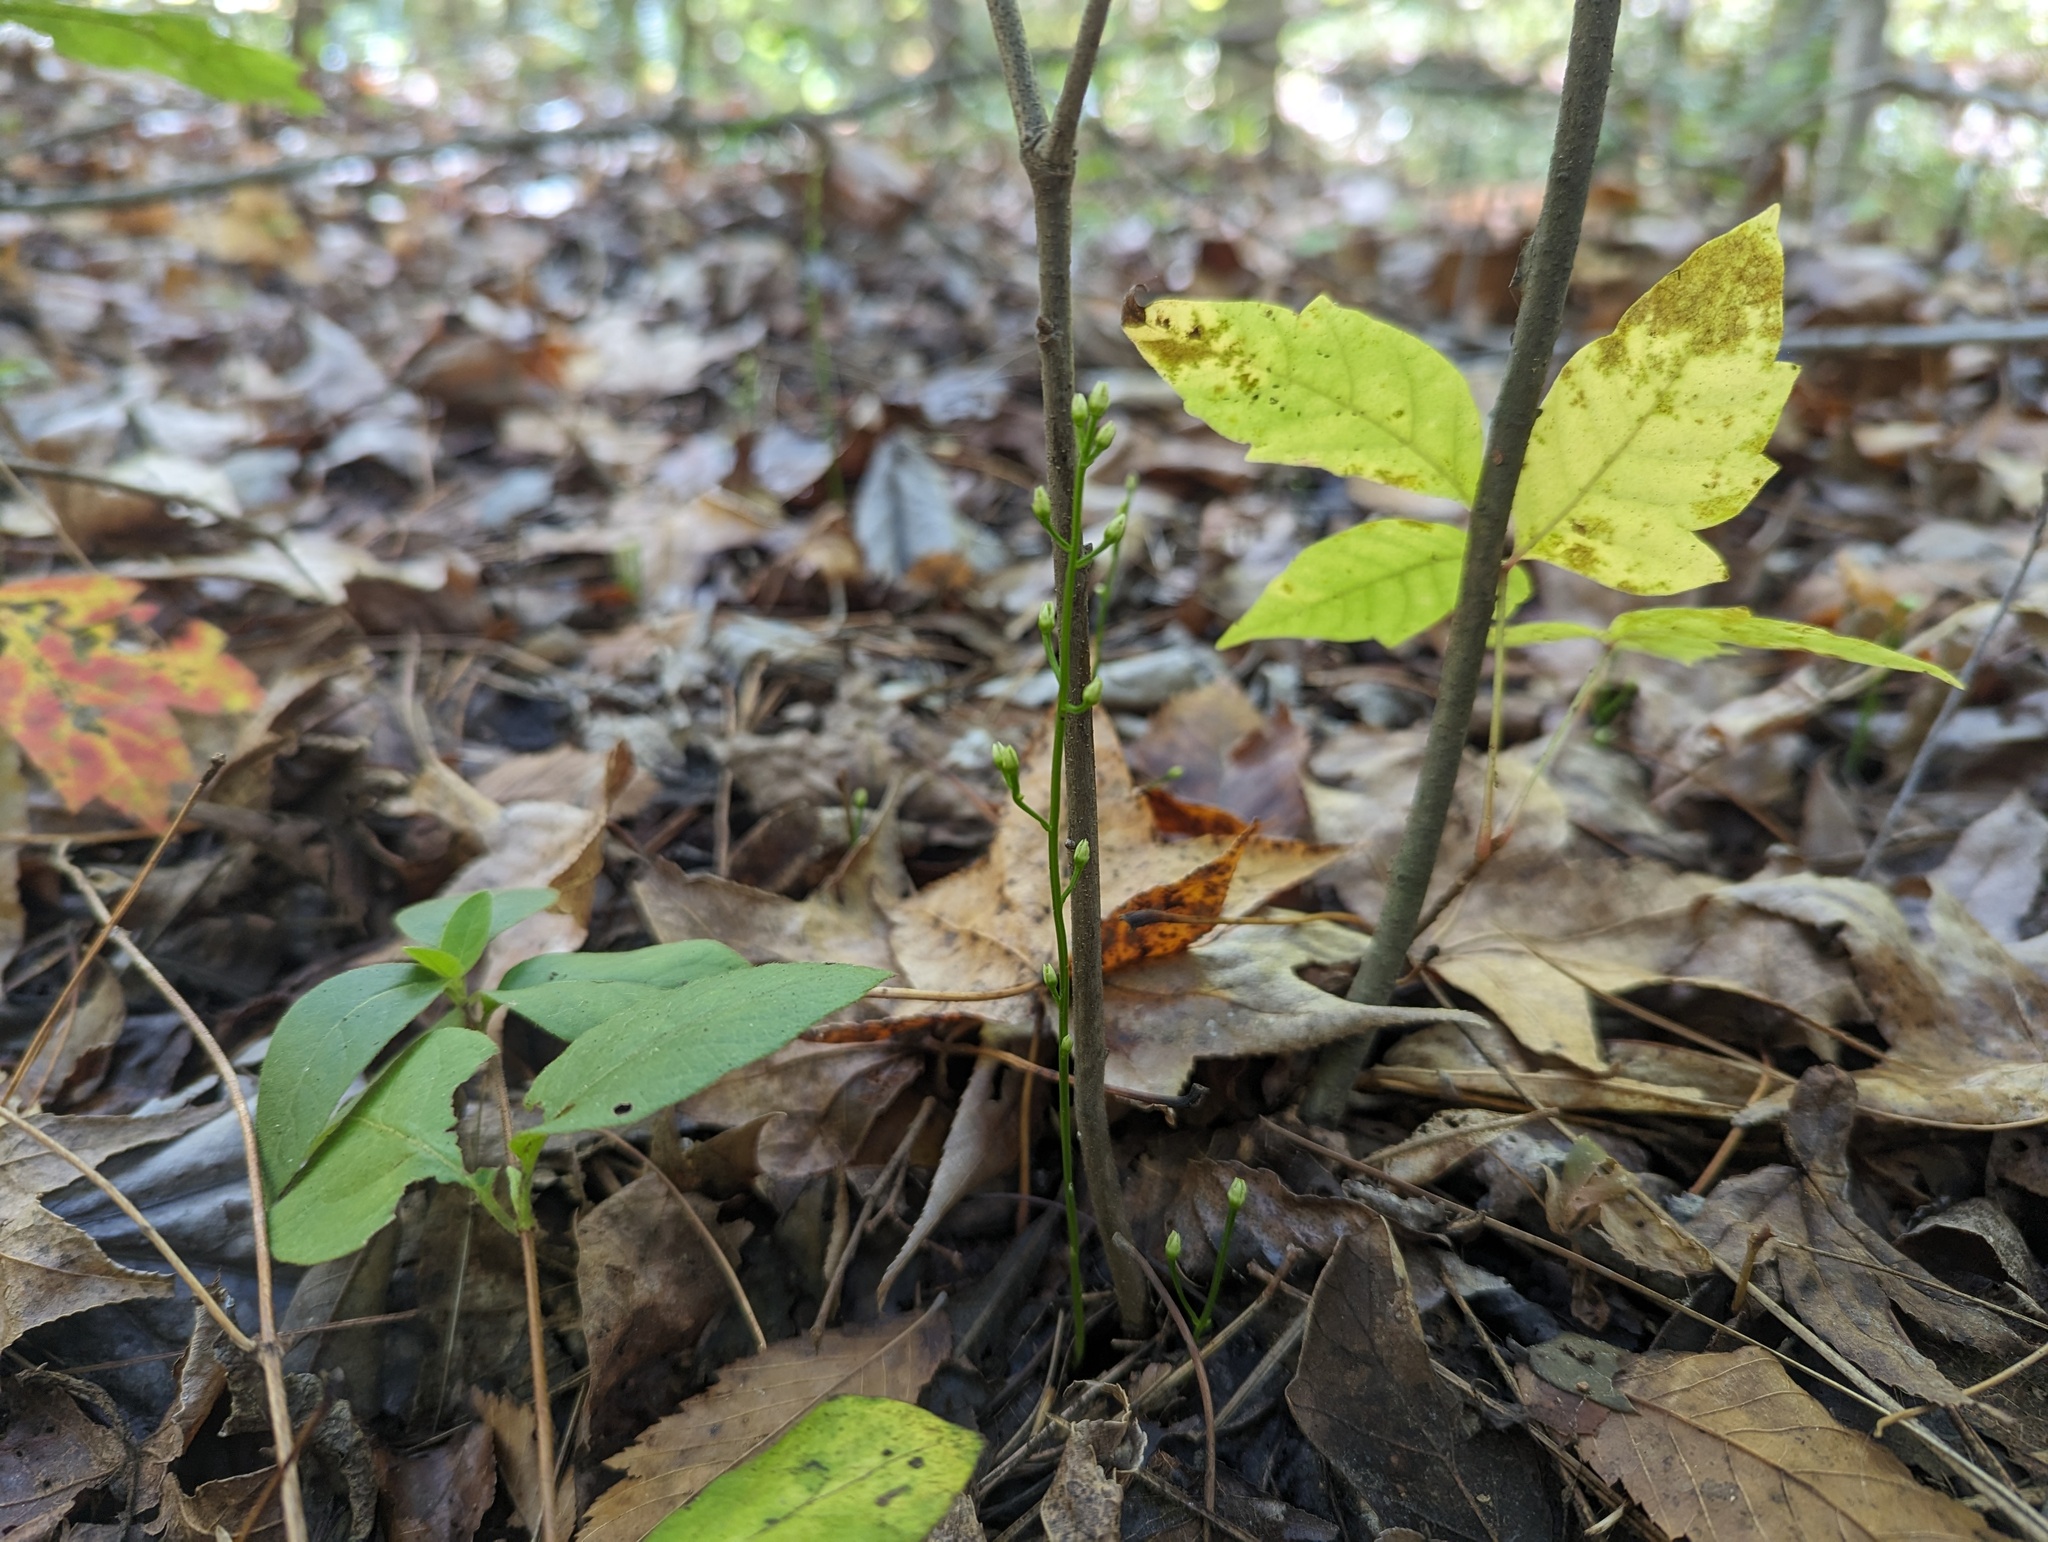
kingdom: Plantae
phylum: Tracheophyta
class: Magnoliopsida
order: Gentianales
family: Gentianaceae
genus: Bartonia
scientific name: Bartonia paniculata
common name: Branched bartonia
